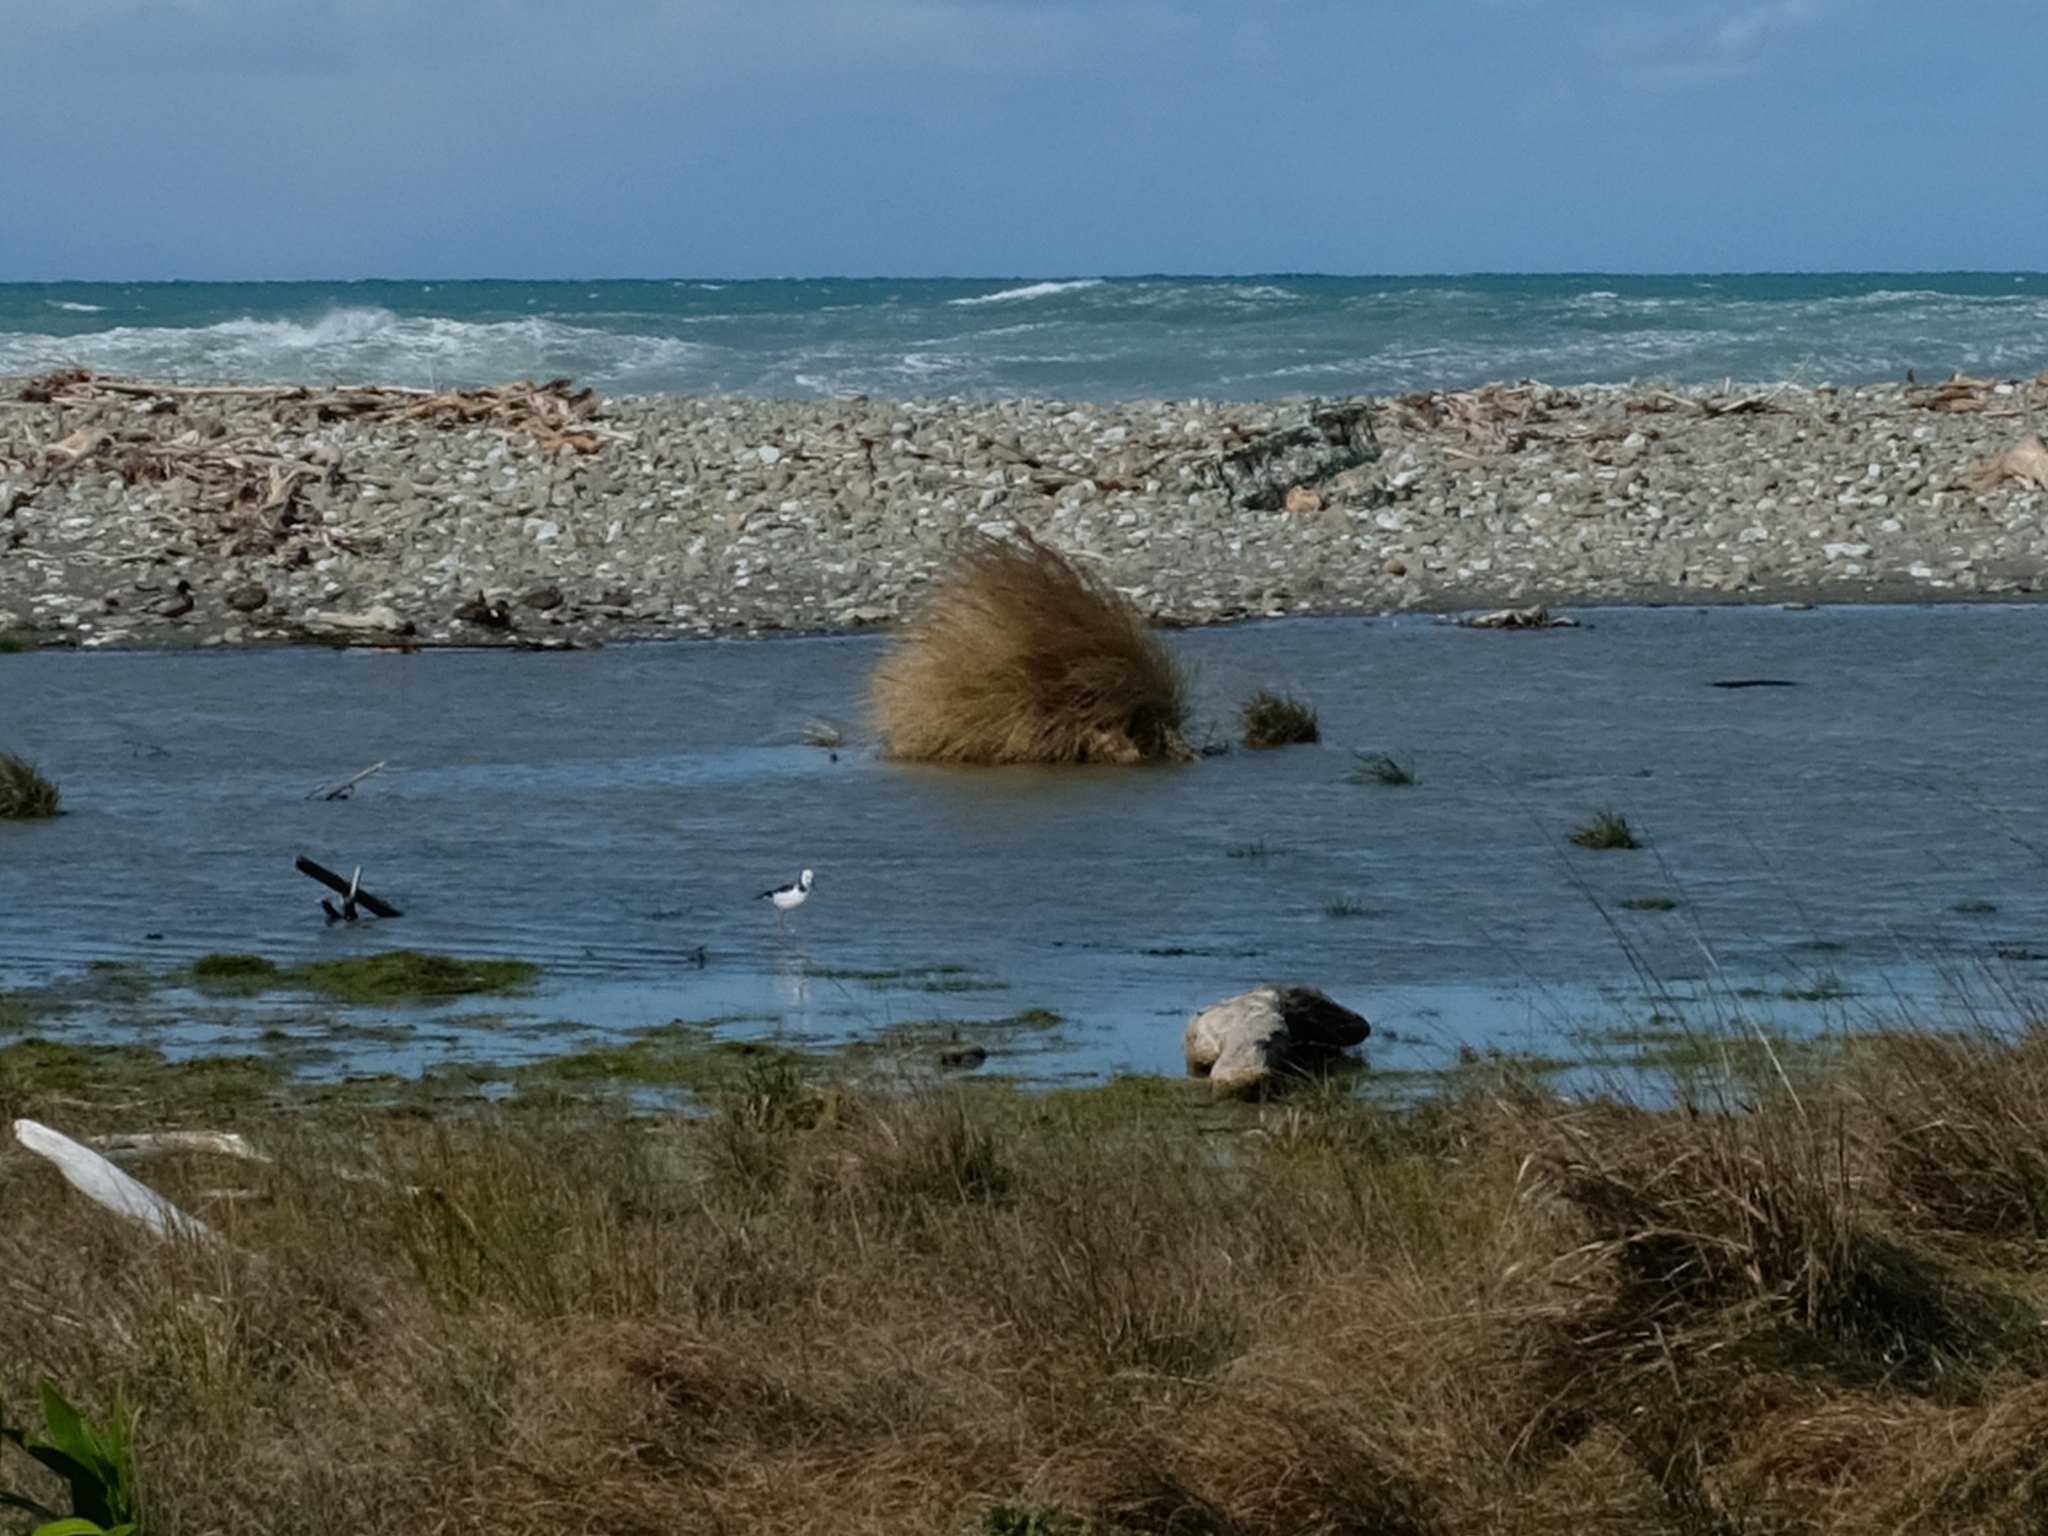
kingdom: Animalia
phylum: Chordata
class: Aves
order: Charadriiformes
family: Recurvirostridae
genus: Himantopus
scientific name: Himantopus leucocephalus
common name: White-headed stilt
